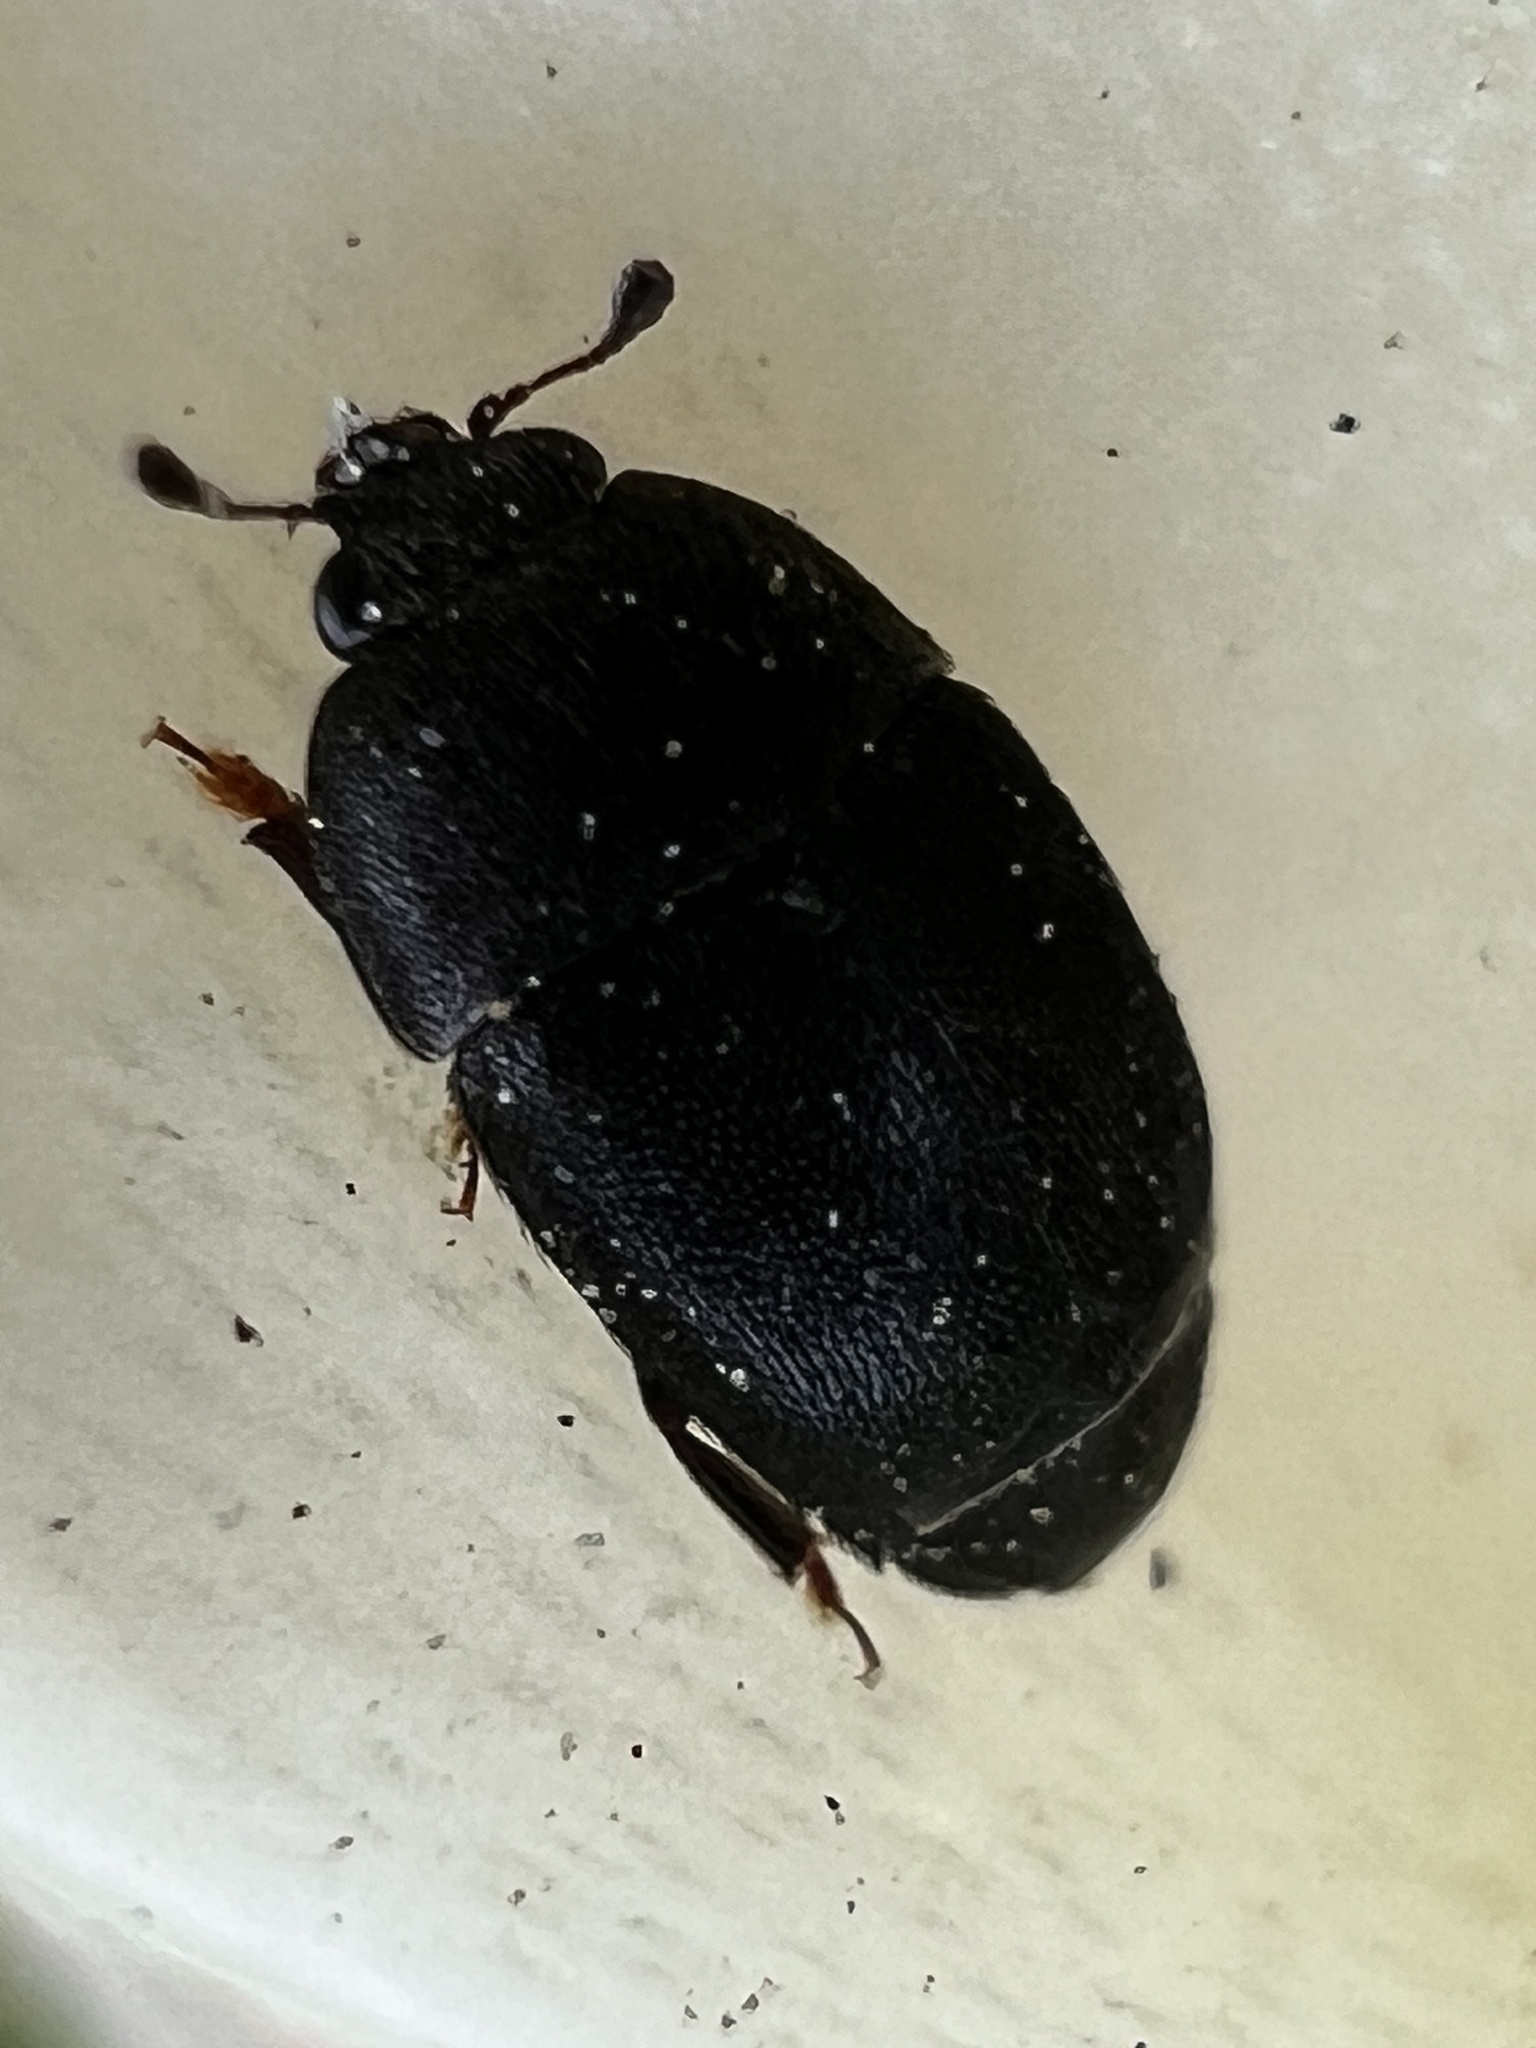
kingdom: Animalia
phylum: Arthropoda
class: Insecta
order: Coleoptera
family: Nitidulidae
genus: Aethina
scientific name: Aethina concolor
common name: Sap beetle
